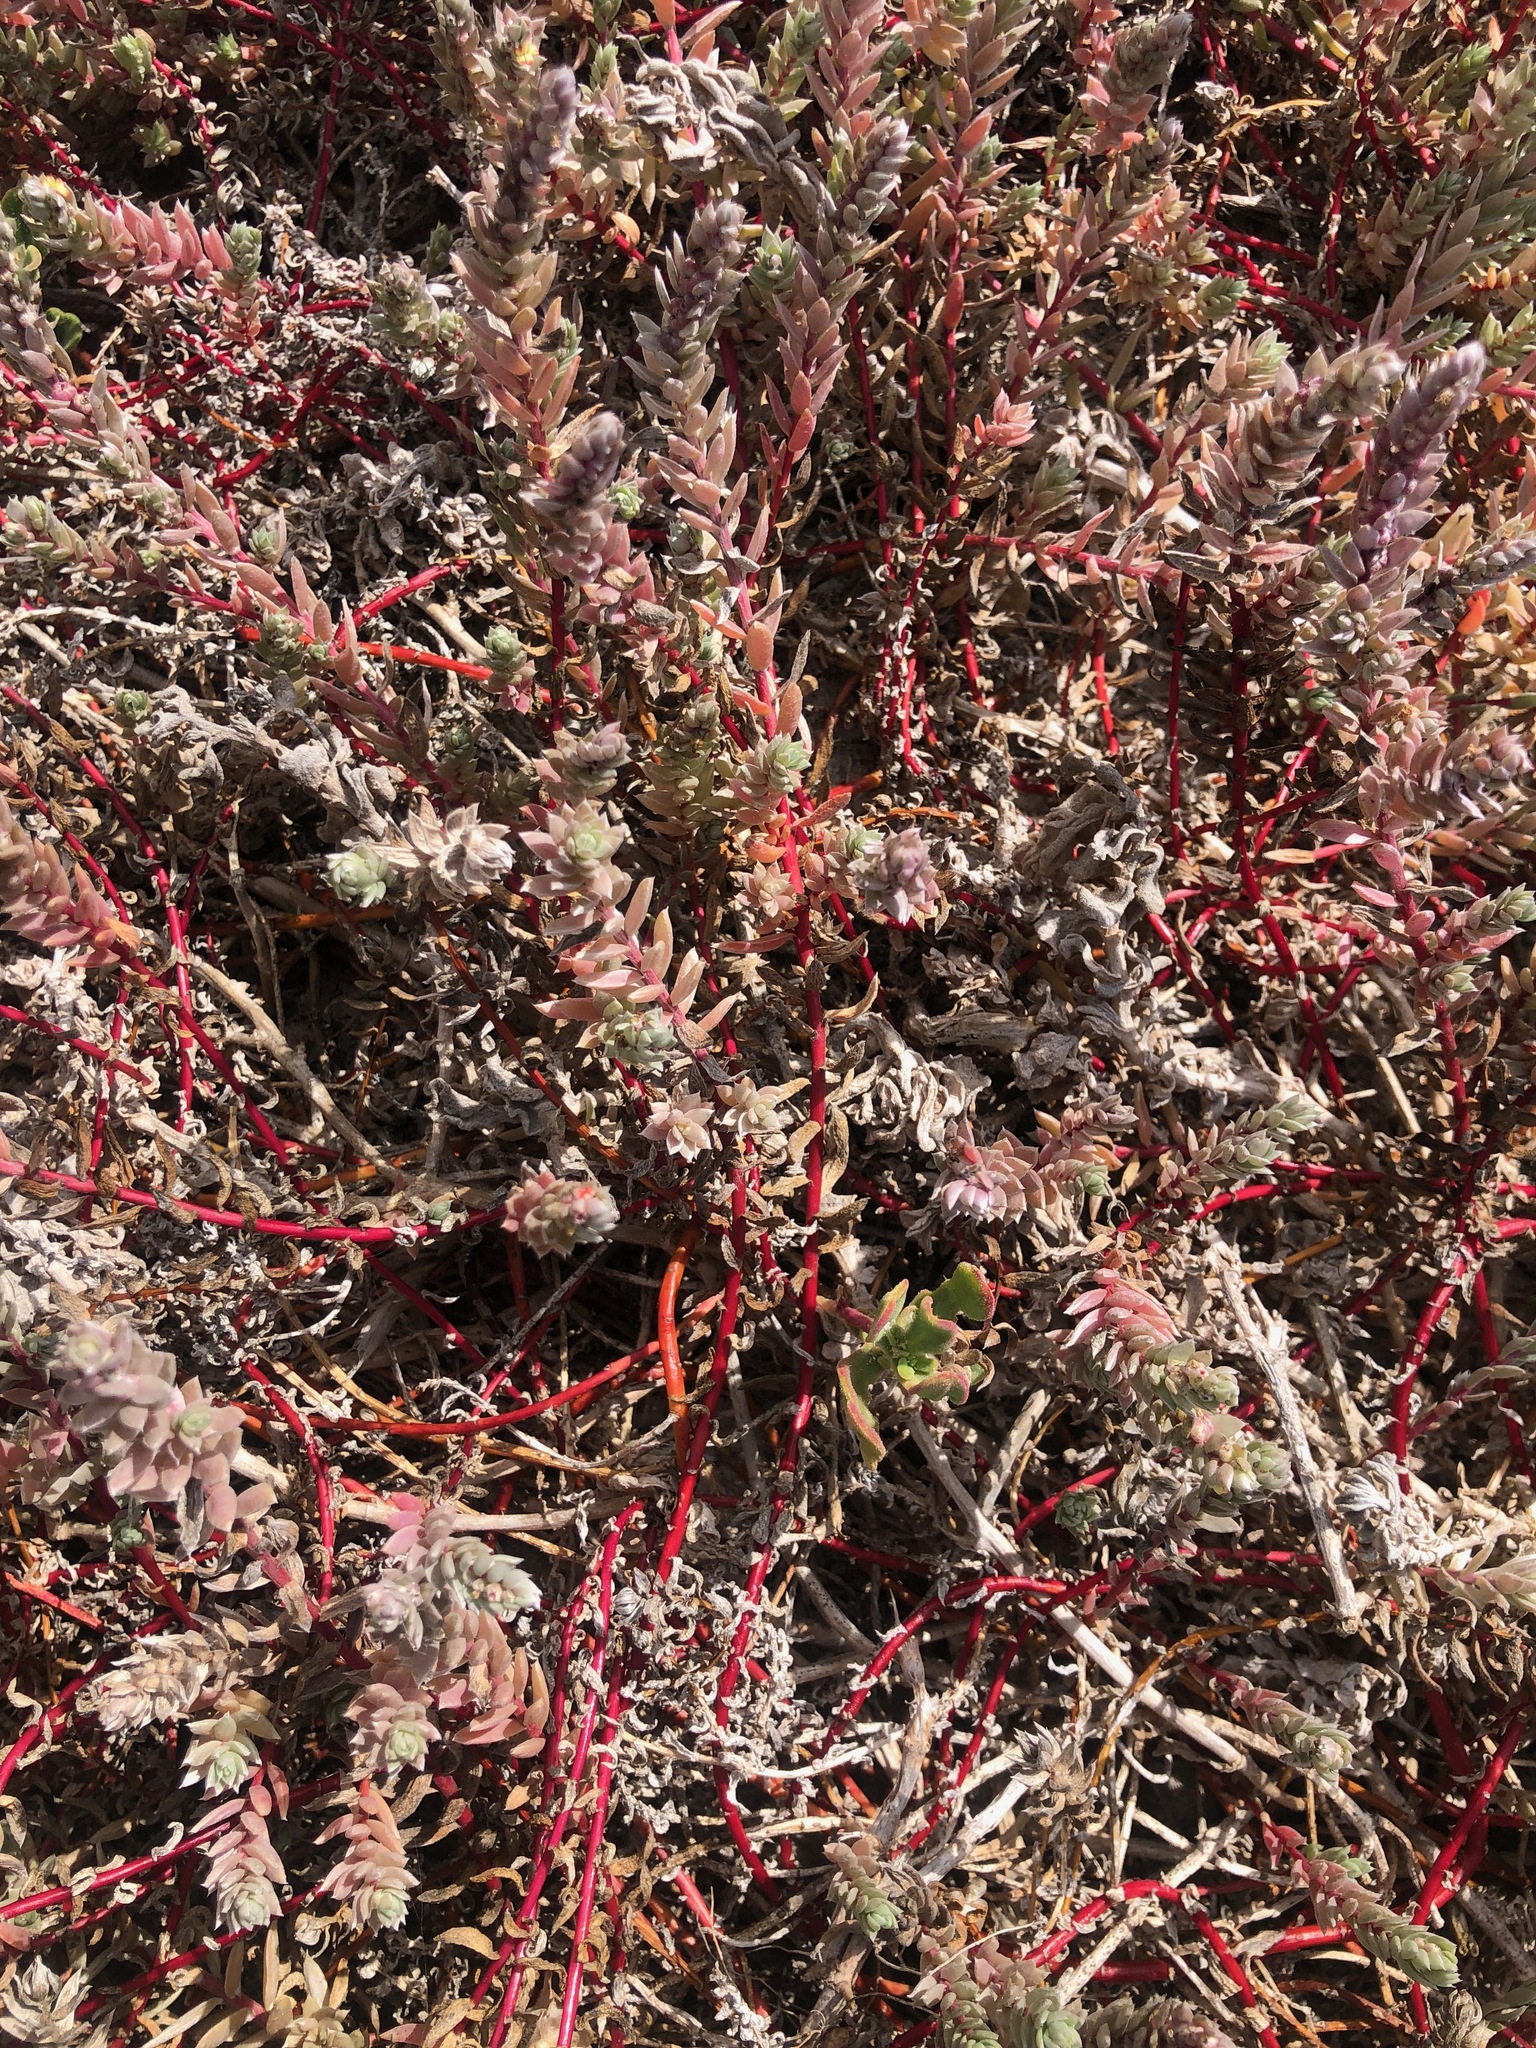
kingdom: Plantae
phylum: Tracheophyta
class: Magnoliopsida
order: Caryophyllales
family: Amaranthaceae
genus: Chenolea
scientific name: Chenolea diffusa
